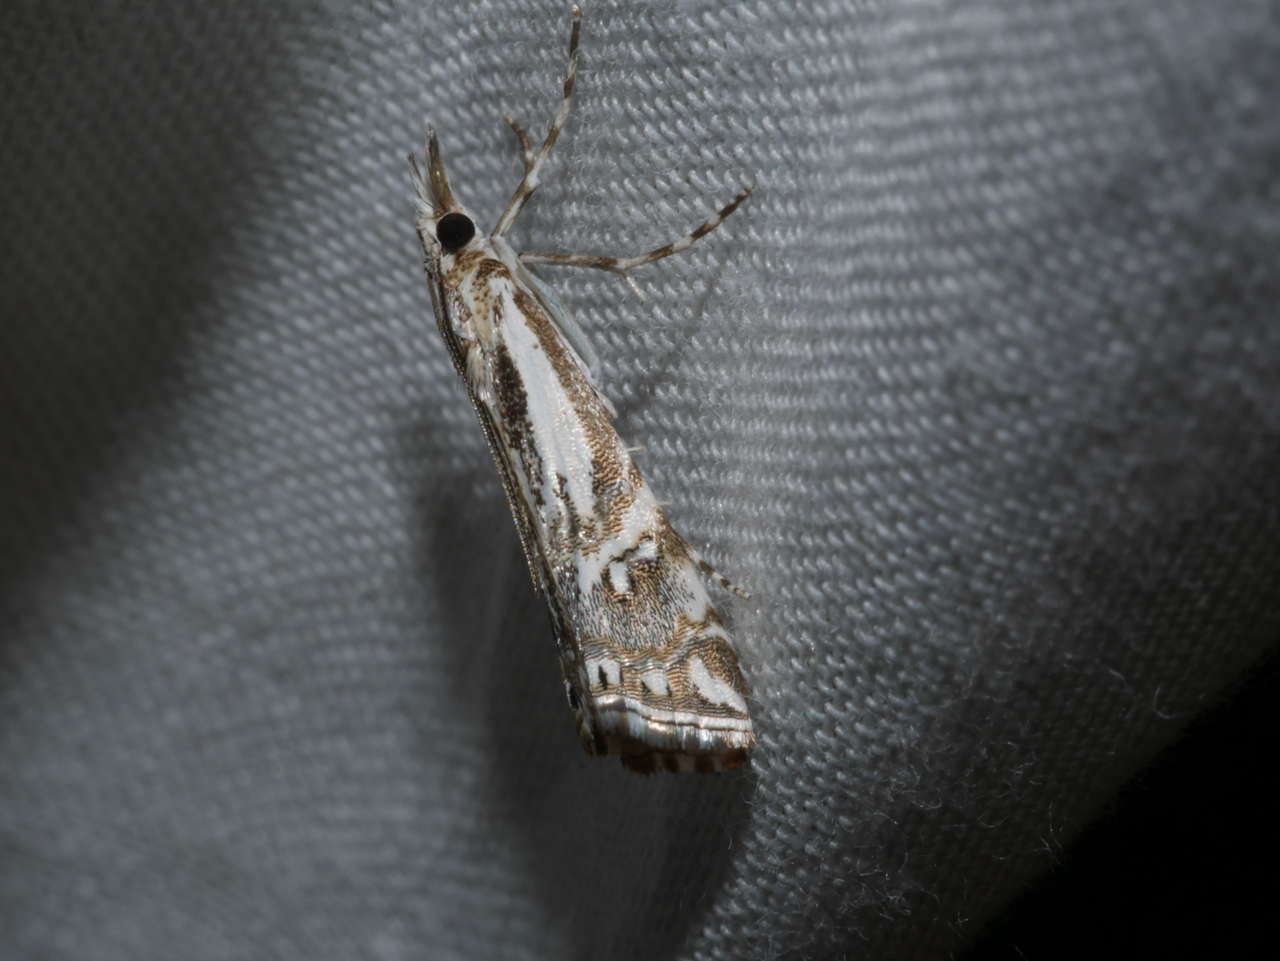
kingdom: Animalia
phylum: Arthropoda
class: Insecta
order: Lepidoptera
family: Crambidae
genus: Hednota
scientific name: Hednota eremenopa
